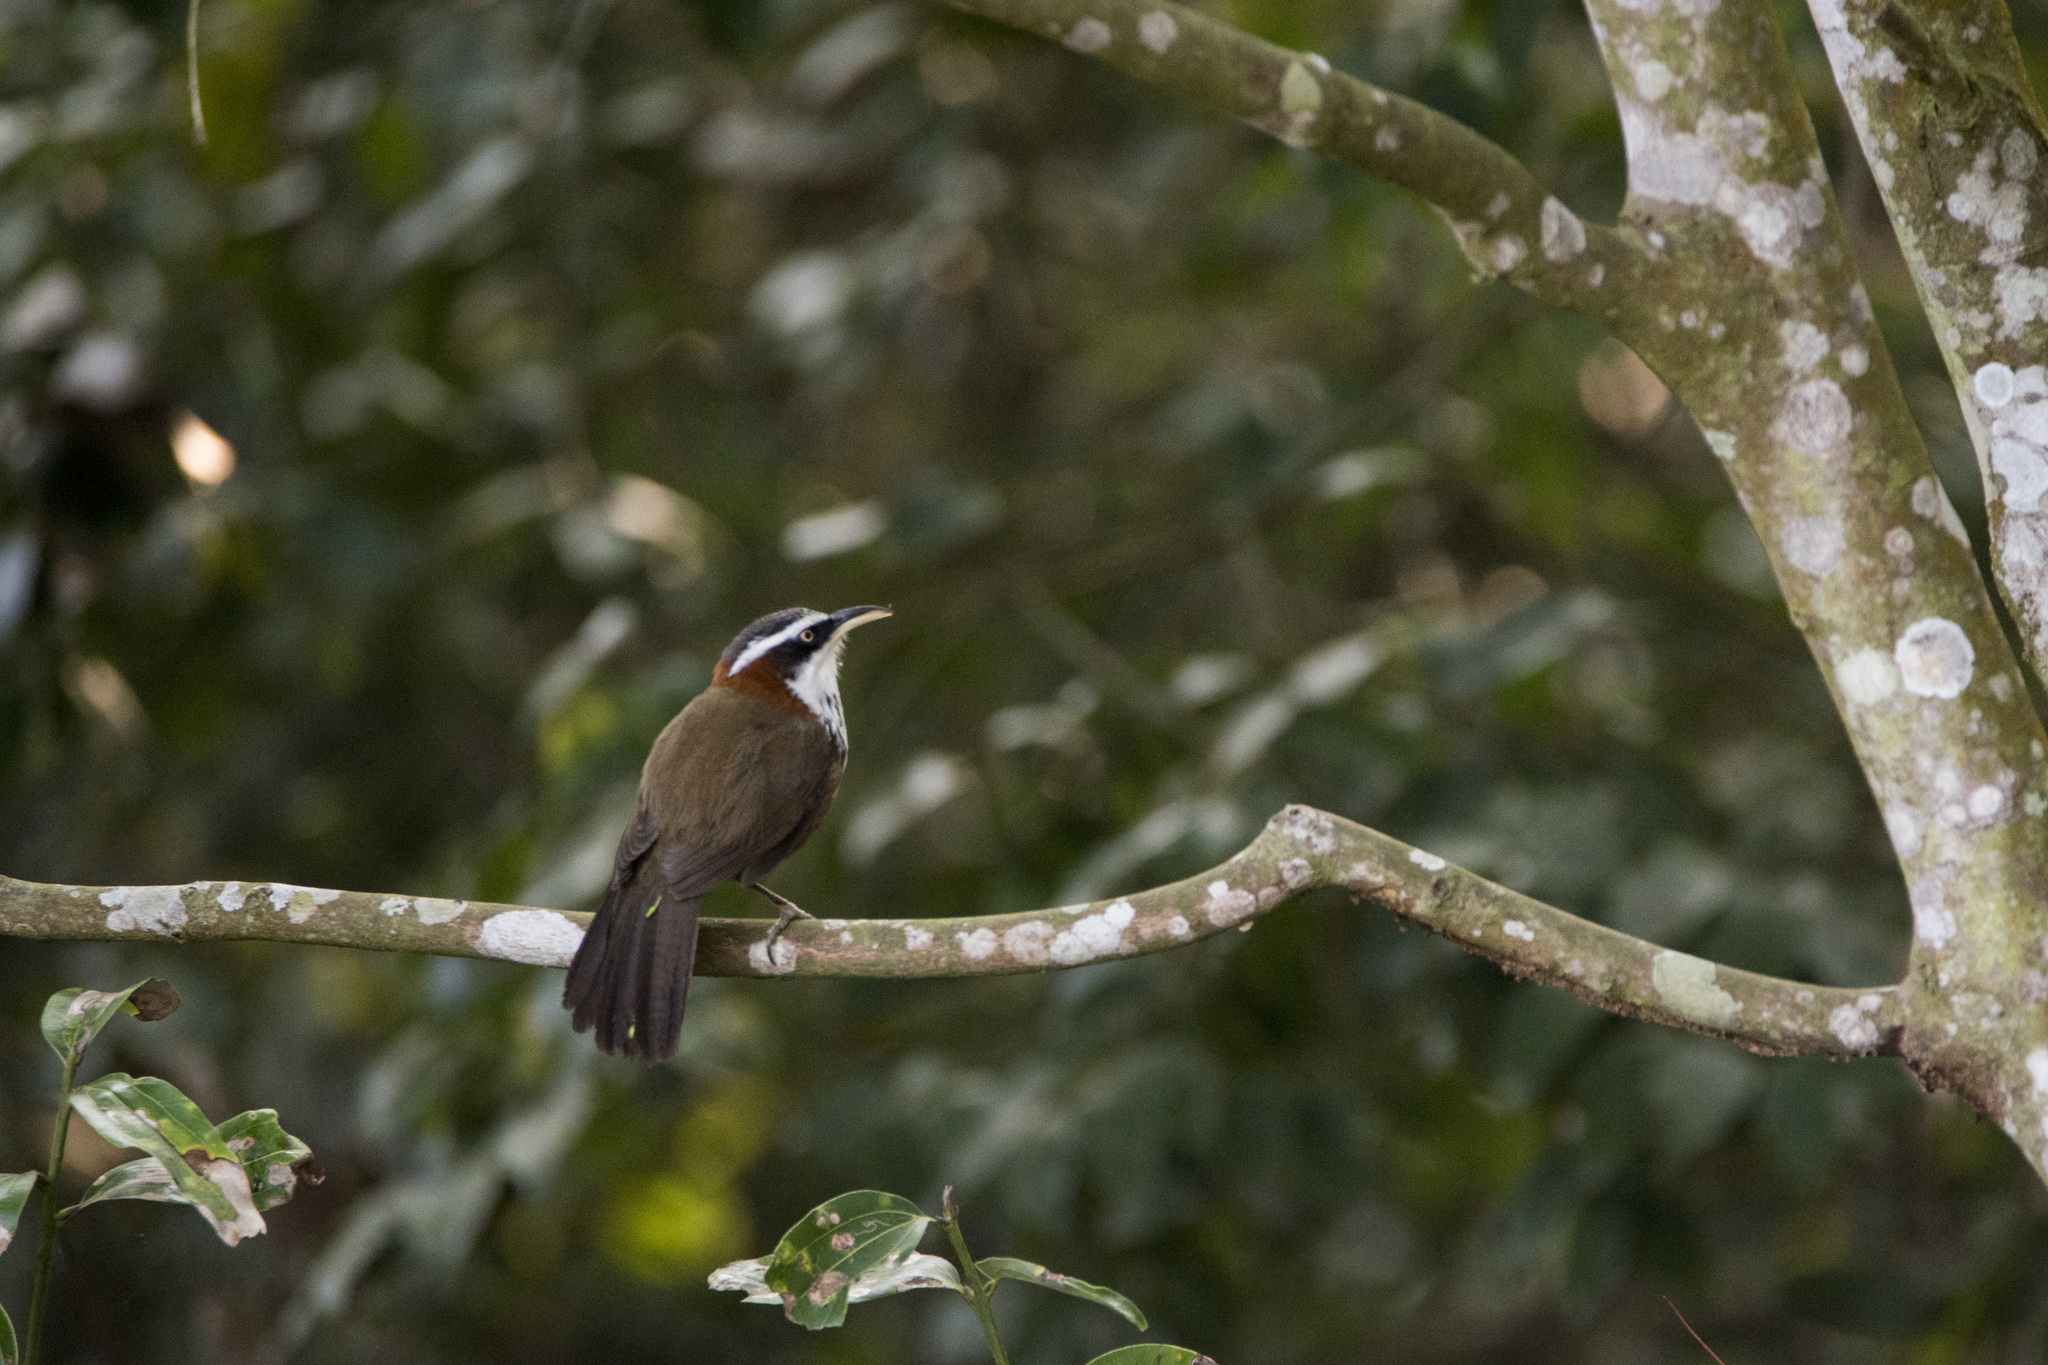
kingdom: Animalia
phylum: Chordata
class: Aves
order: Passeriformes
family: Timaliidae
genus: Pomatorhinus
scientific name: Pomatorhinus musicus
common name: Taiwan scimitar-babbler
